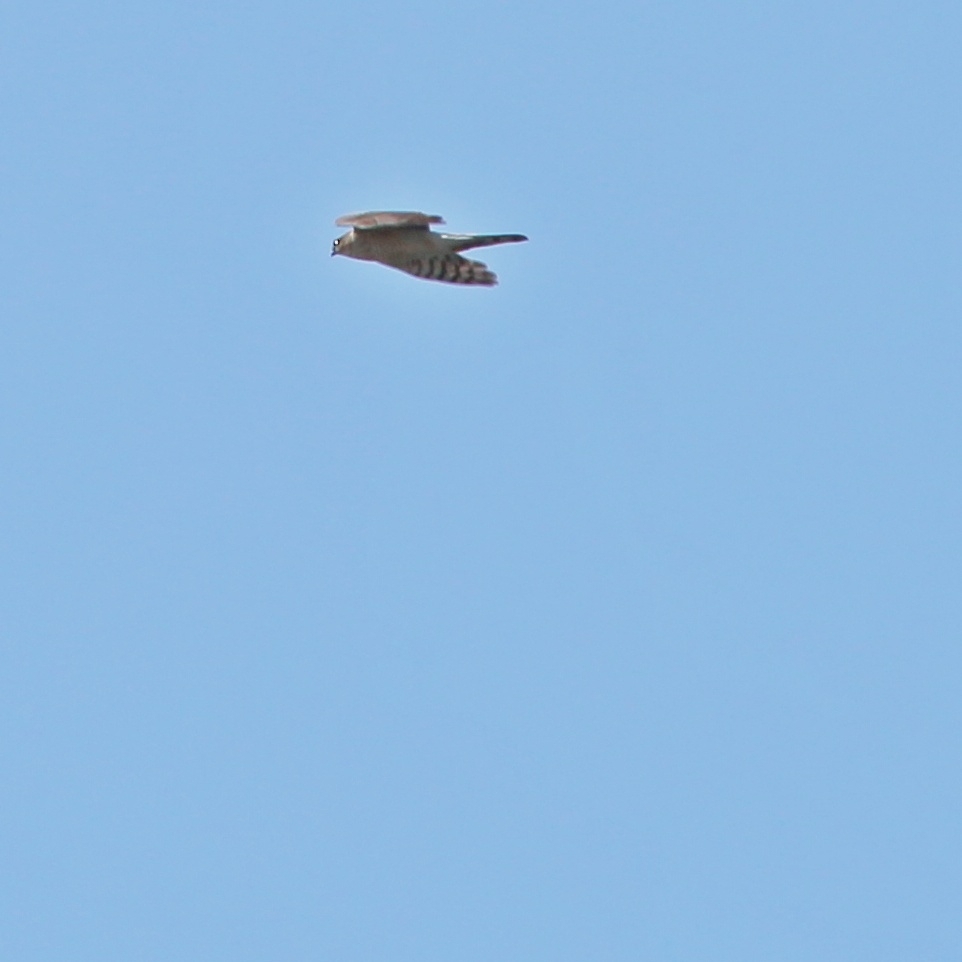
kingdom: Animalia
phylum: Chordata
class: Aves
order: Accipitriformes
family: Accipitridae
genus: Accipiter
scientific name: Accipiter nisus
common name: Eurasian sparrowhawk
